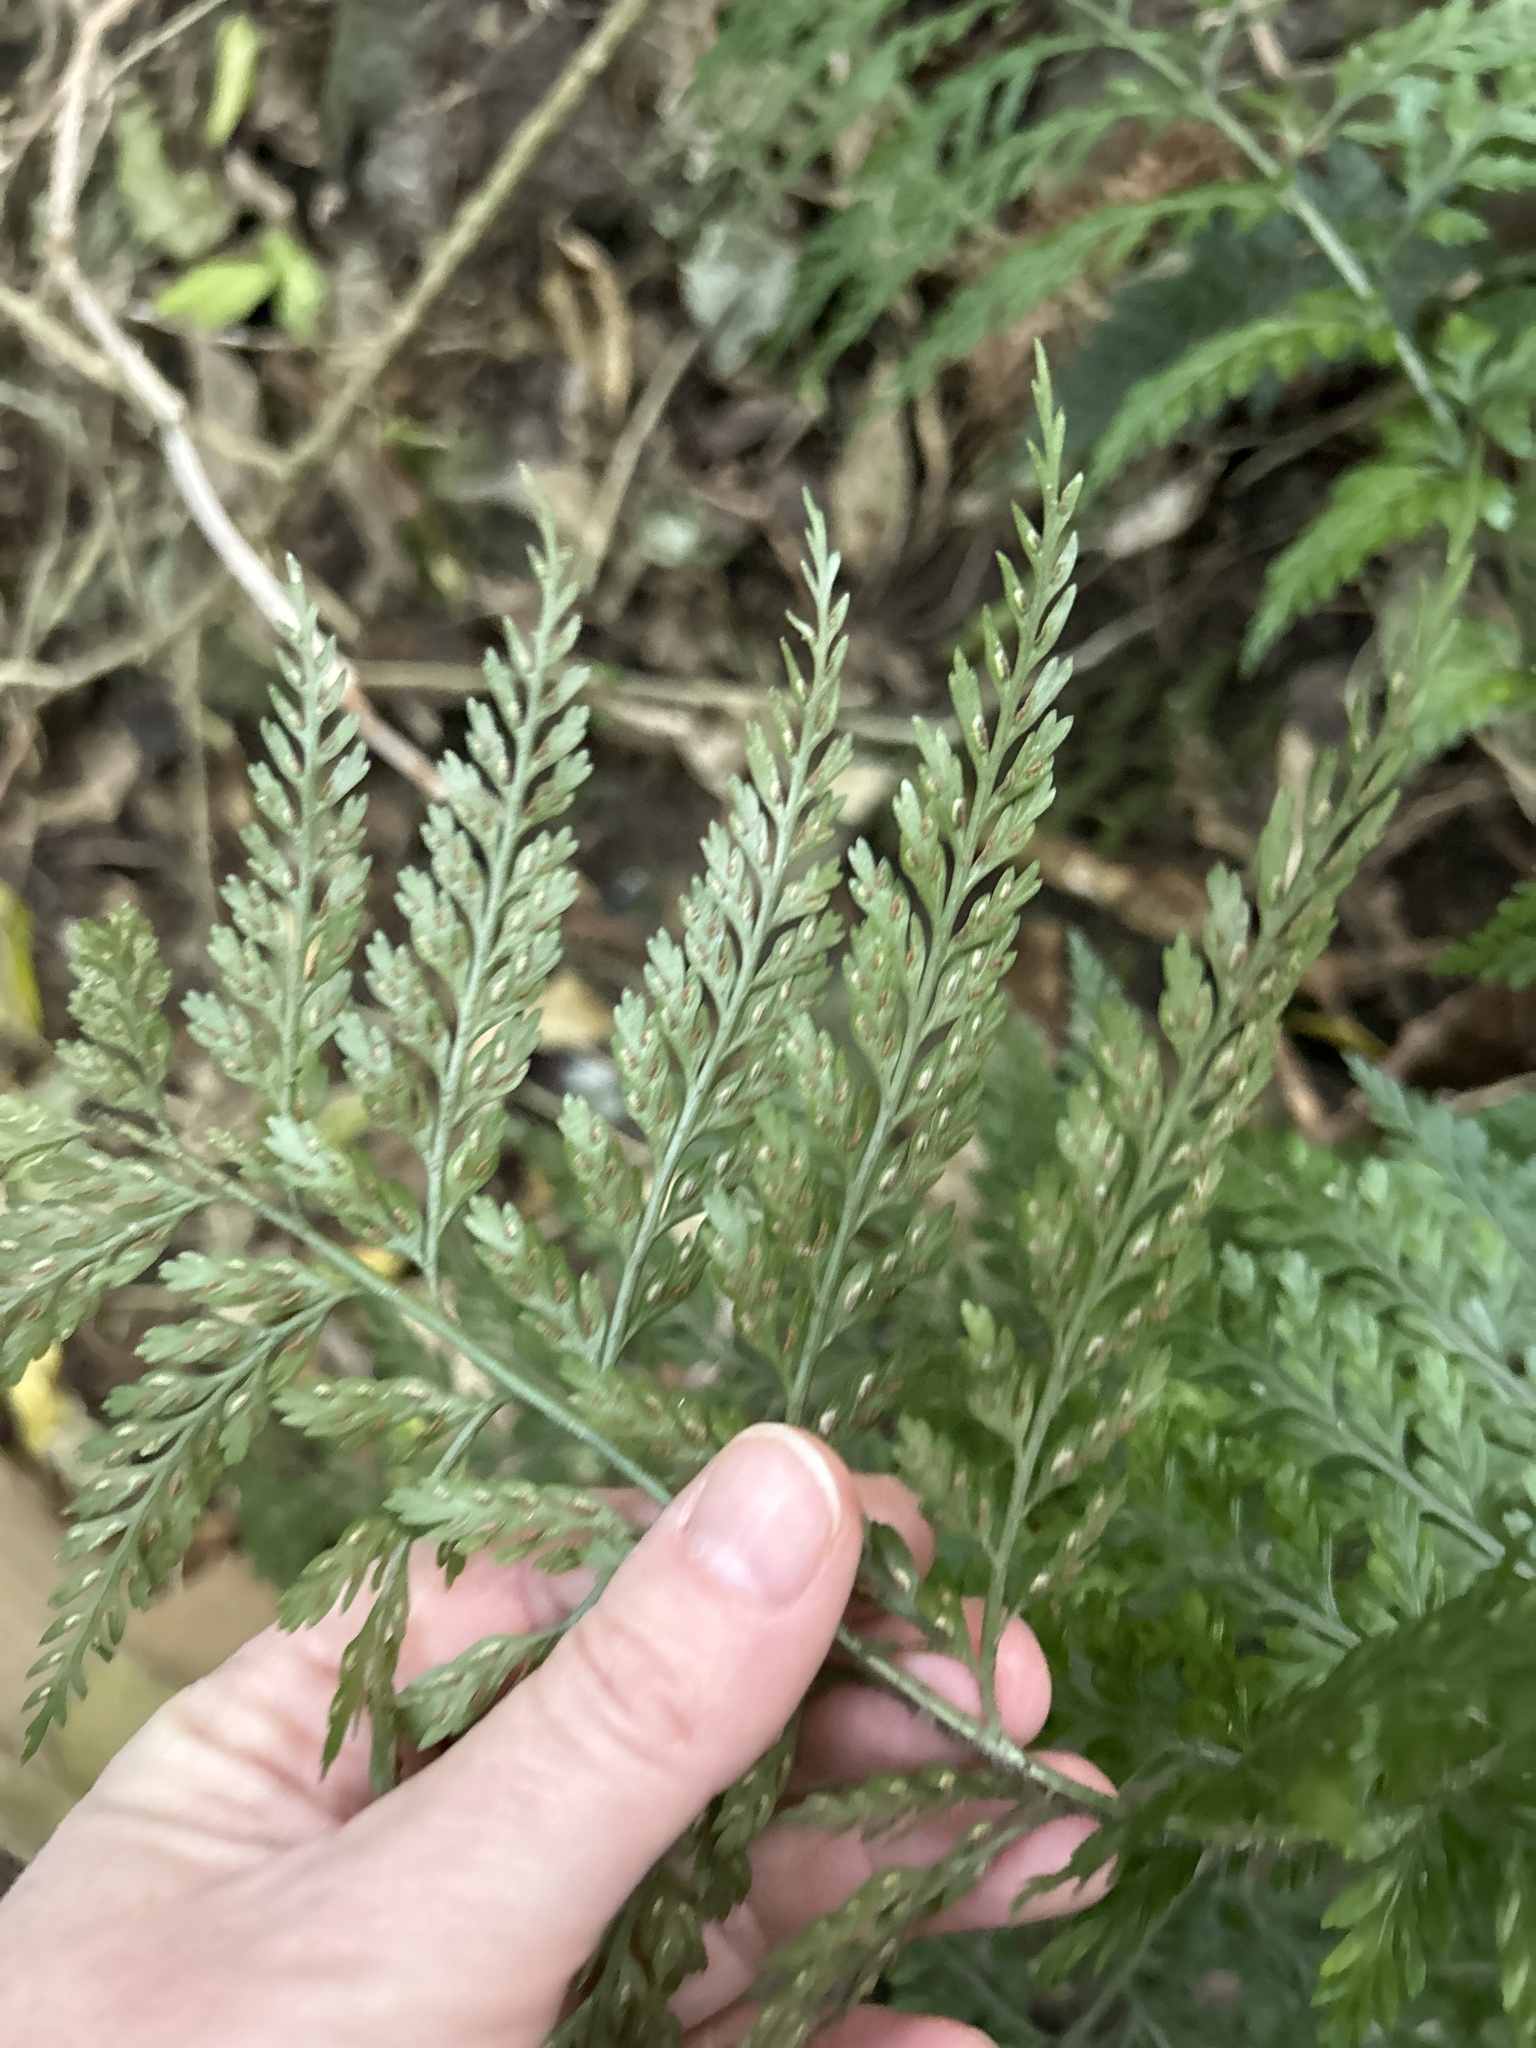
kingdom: Plantae
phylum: Tracheophyta
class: Polypodiopsida
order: Polypodiales
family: Aspleniaceae
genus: Asplenium
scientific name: Asplenium
